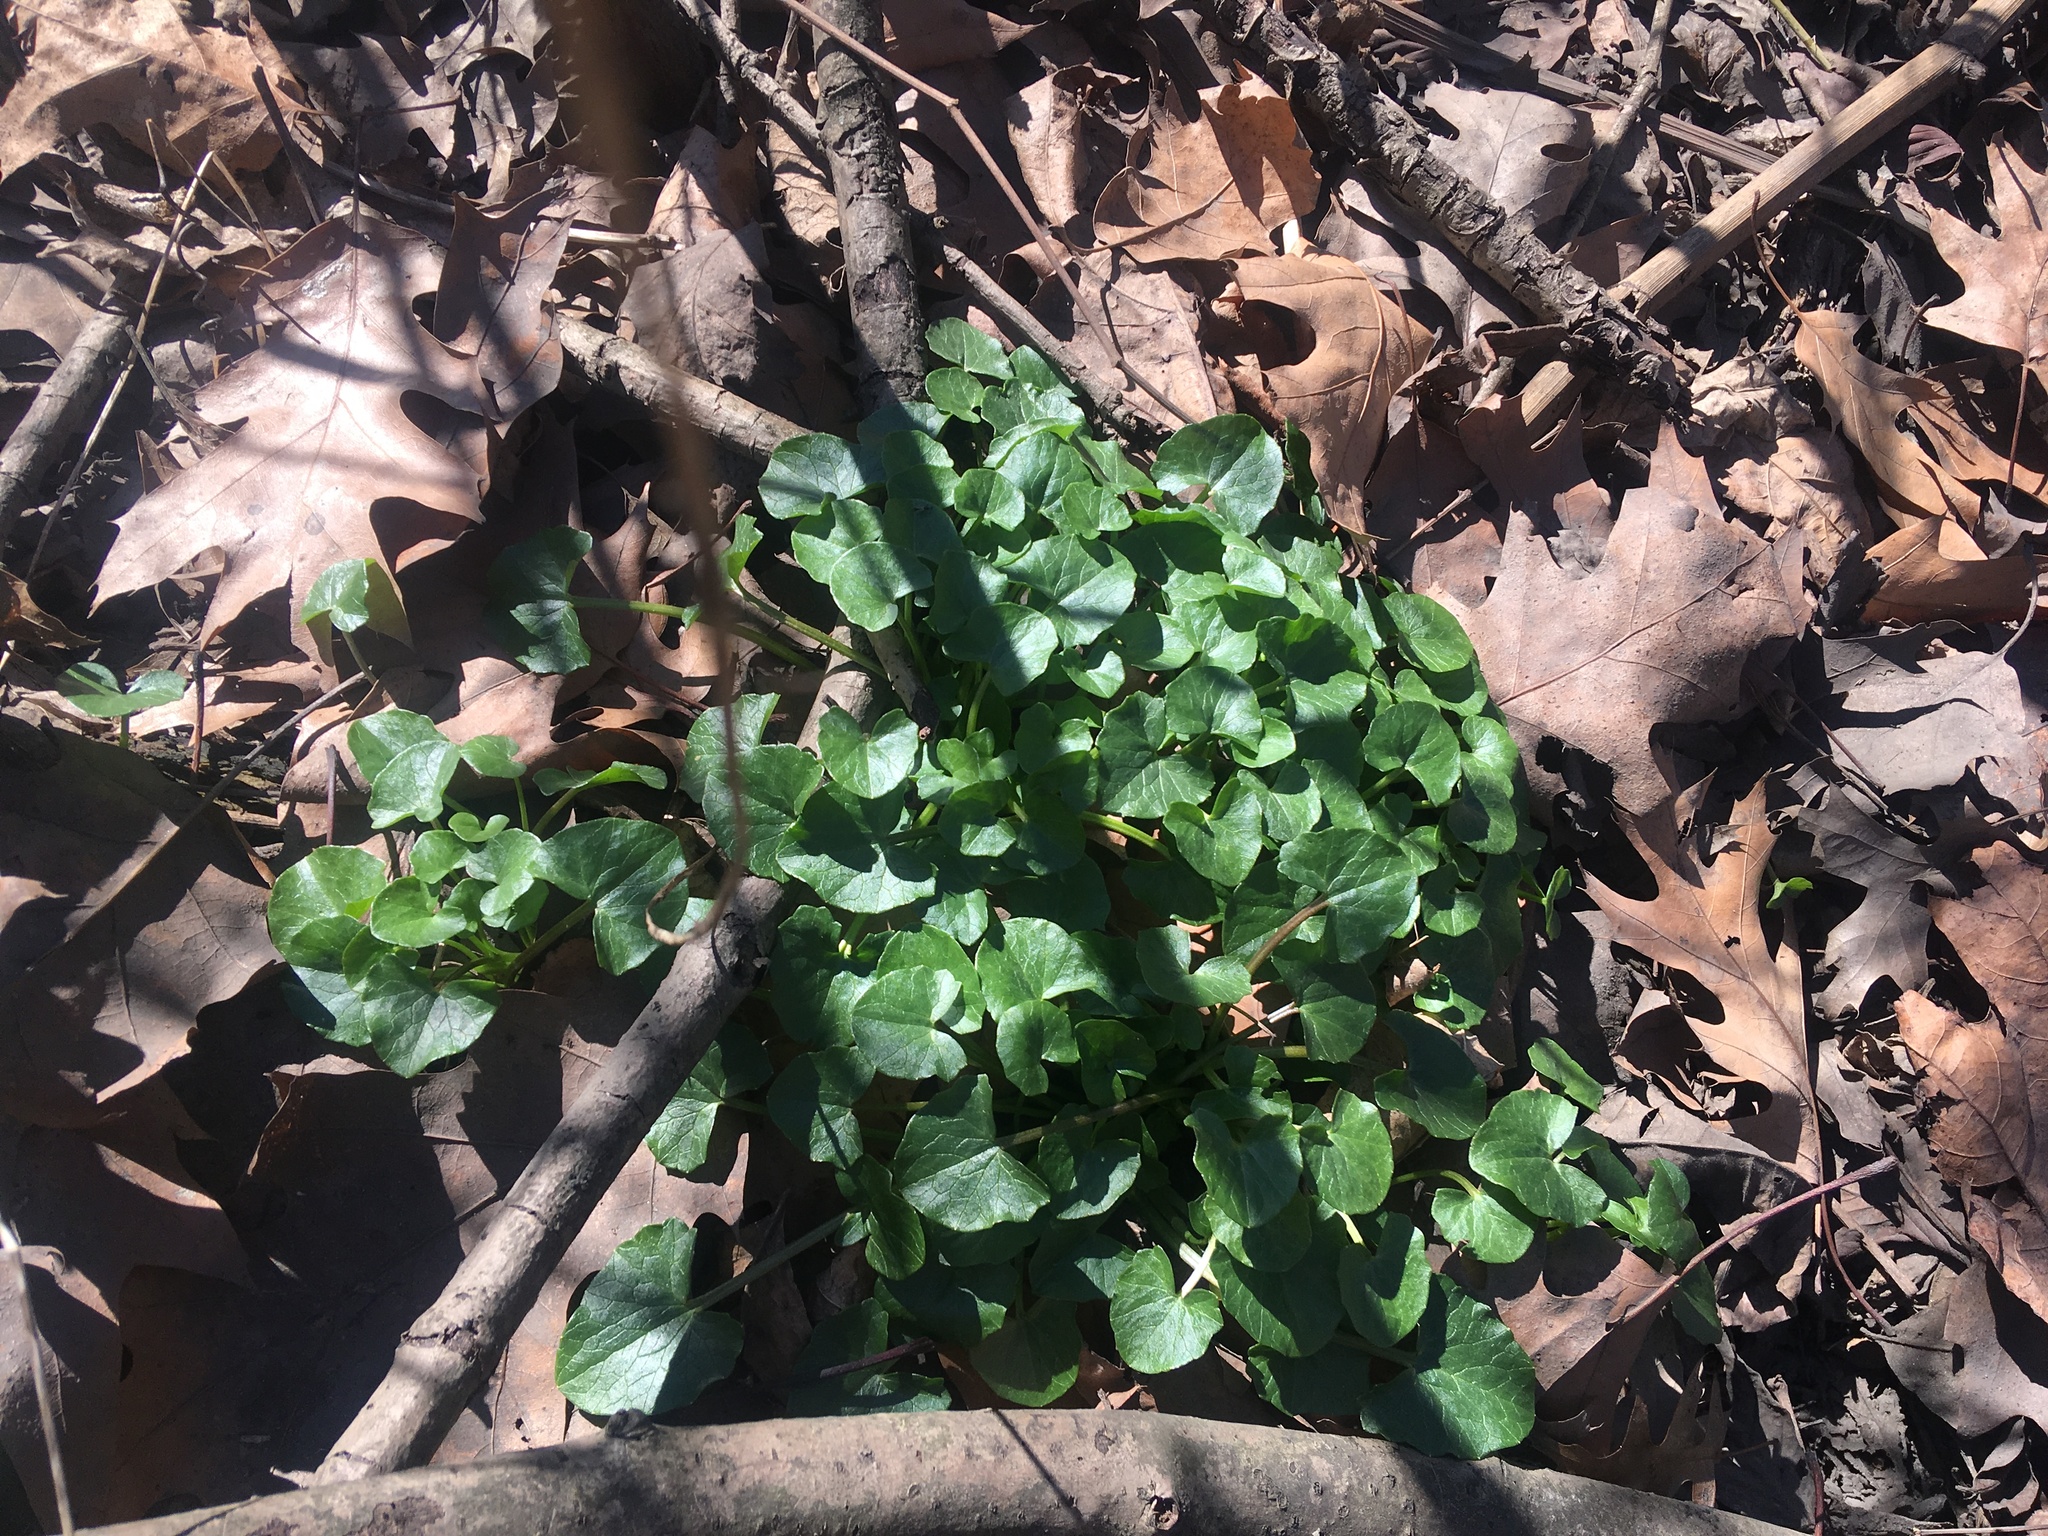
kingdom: Plantae
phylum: Tracheophyta
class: Magnoliopsida
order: Ranunculales
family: Ranunculaceae
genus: Ficaria
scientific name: Ficaria verna
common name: Lesser celandine
